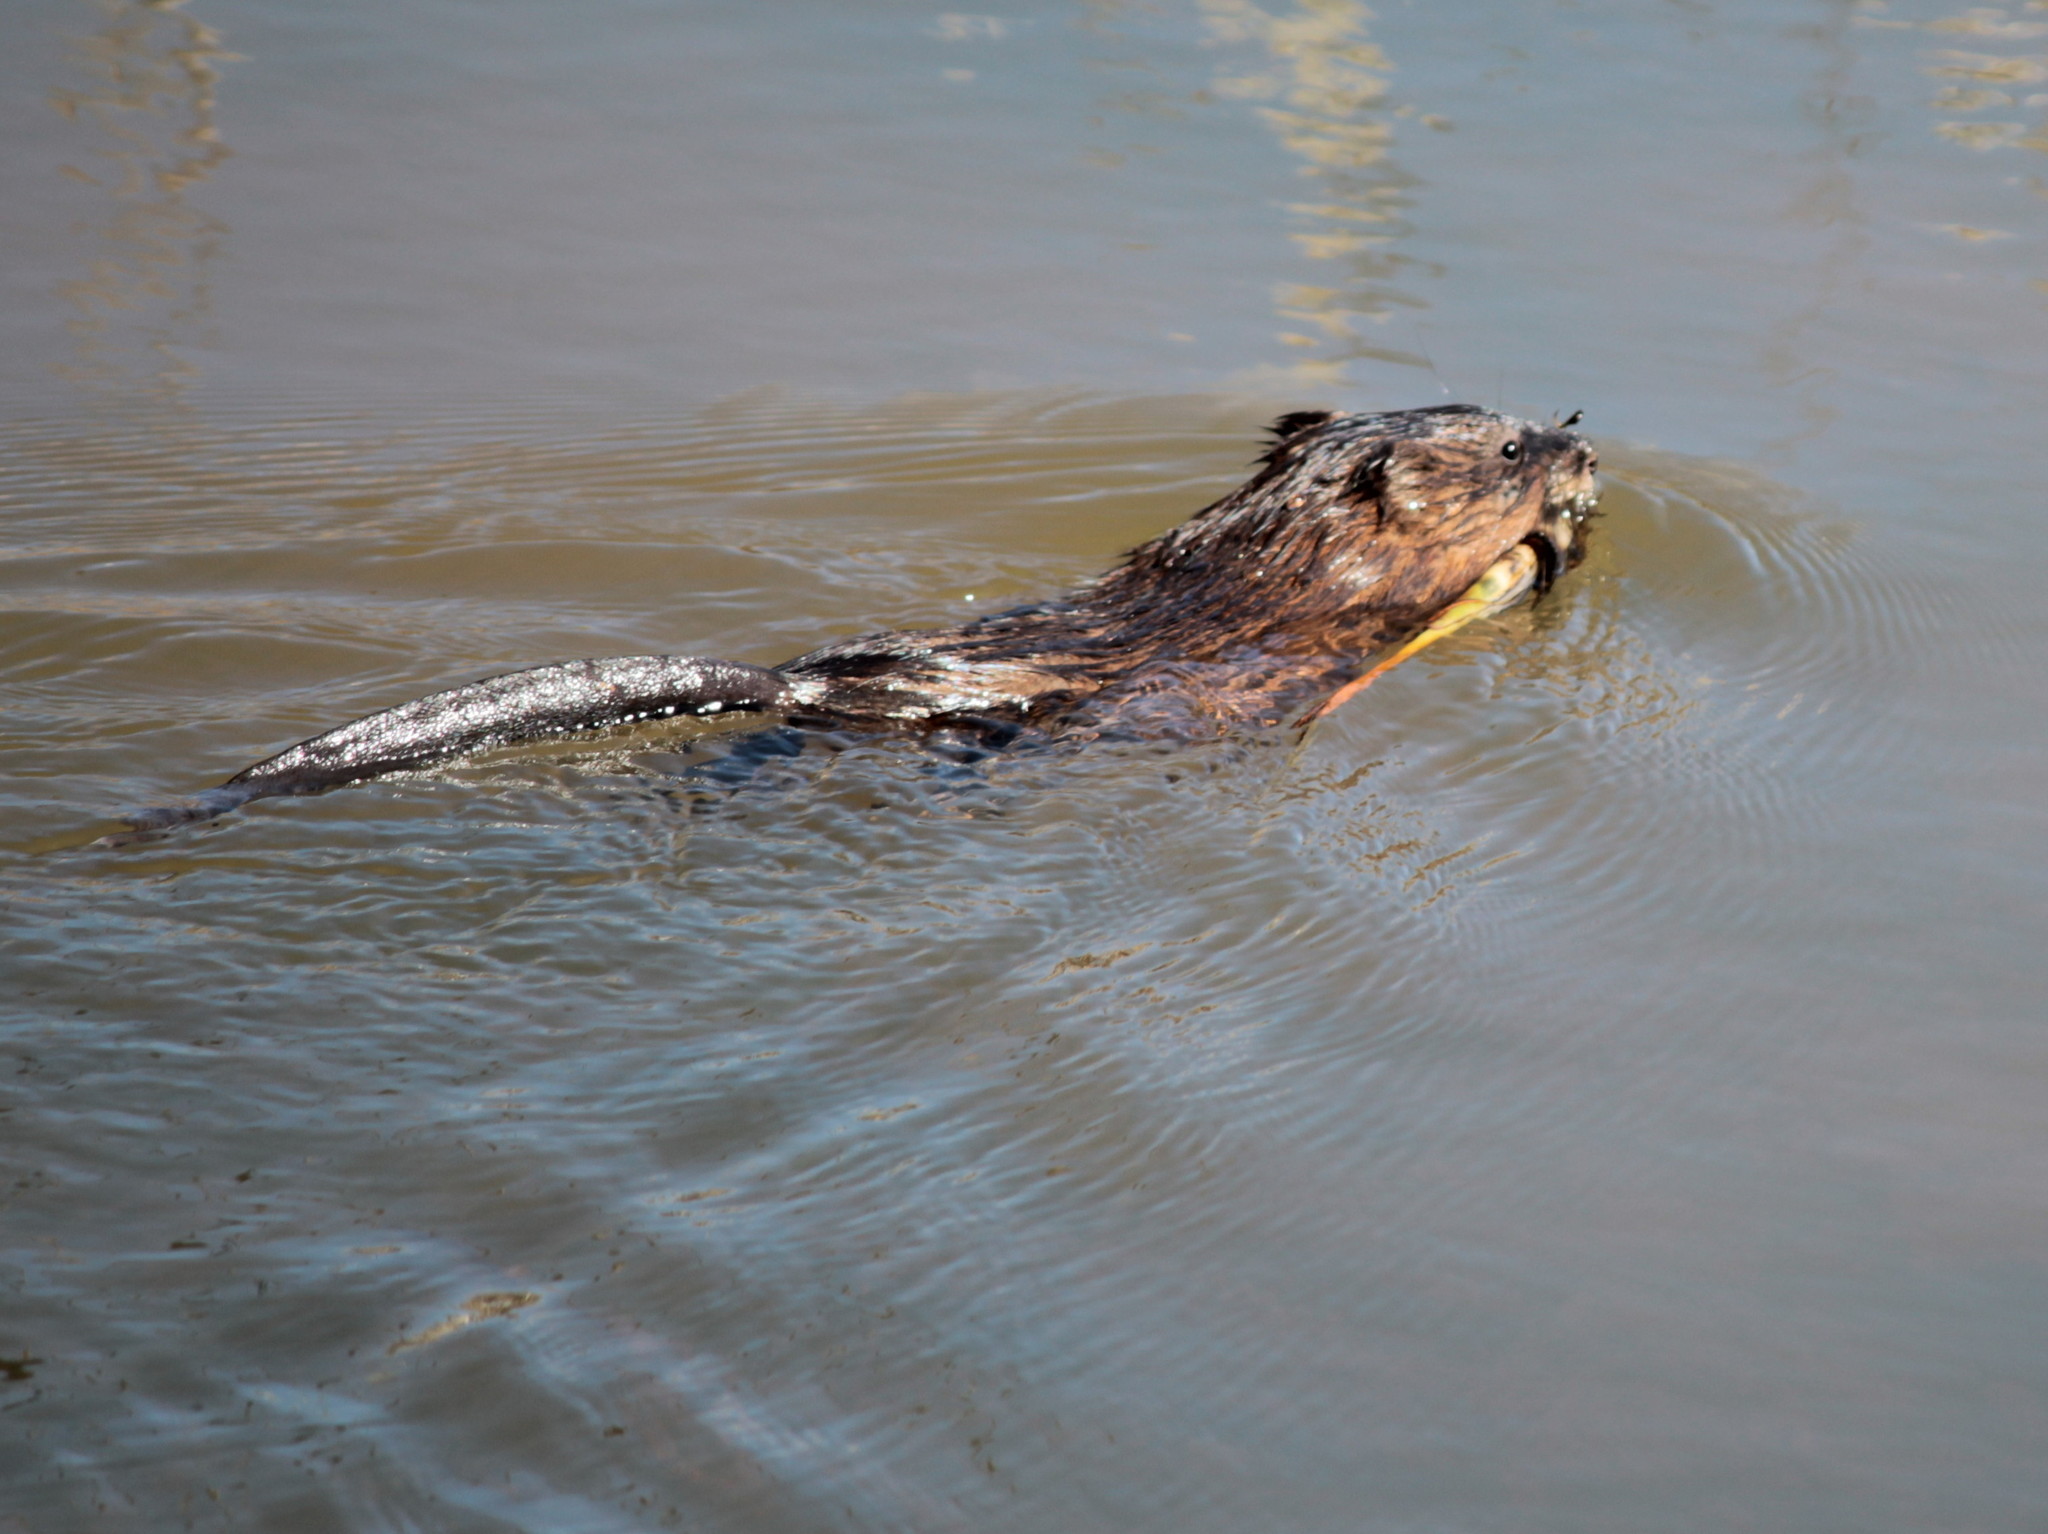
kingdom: Animalia
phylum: Chordata
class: Mammalia
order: Rodentia
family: Cricetidae
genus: Ondatra
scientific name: Ondatra zibethicus
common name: Muskrat
